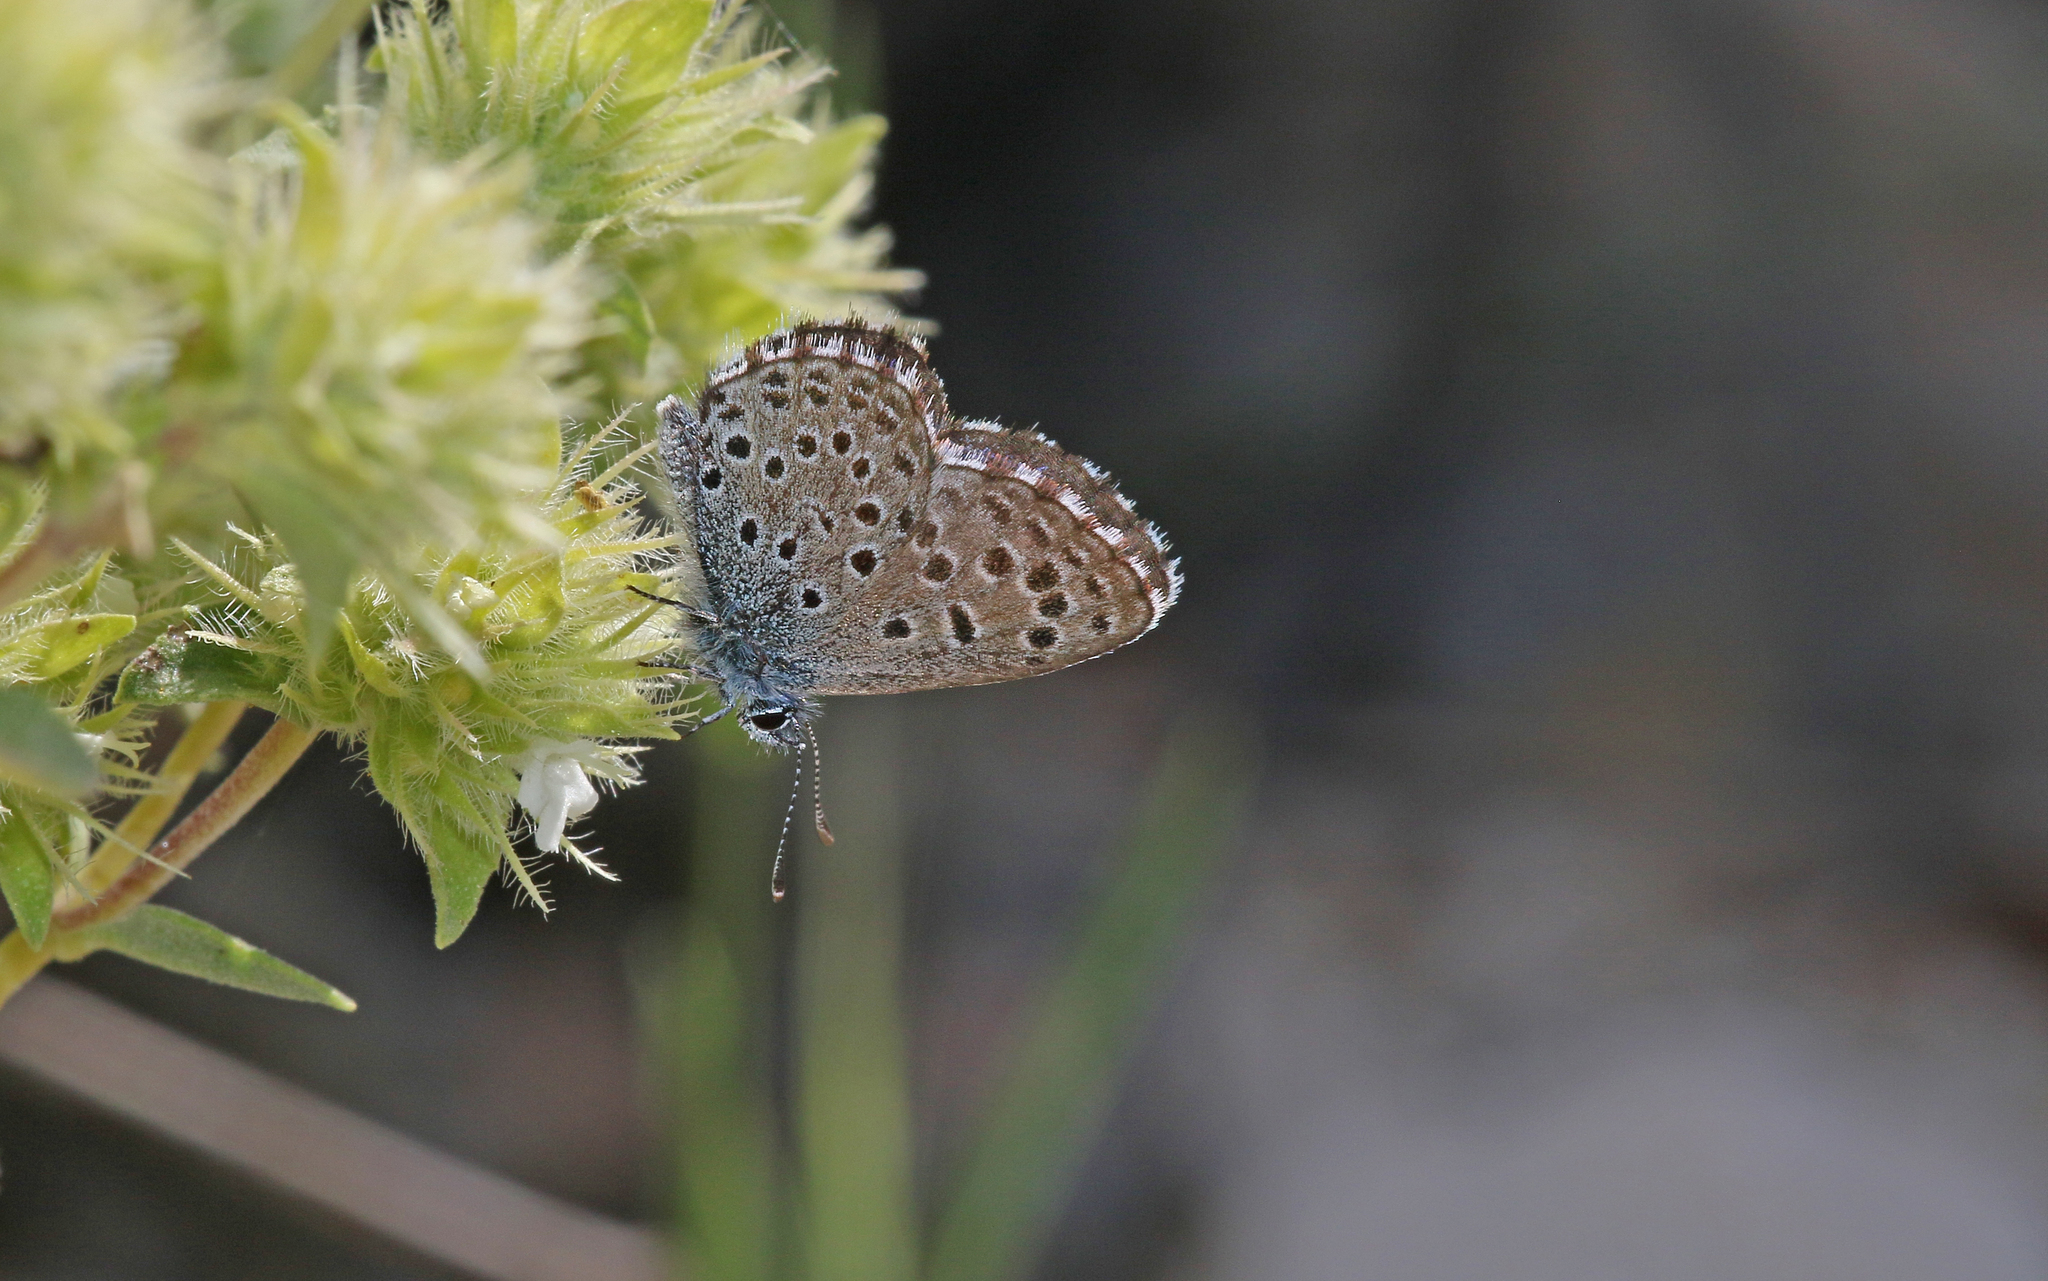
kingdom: Animalia
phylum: Arthropoda
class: Insecta
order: Lepidoptera
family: Lycaenidae
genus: Pseudophilotes
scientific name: Pseudophilotes baton
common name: Baton blue
